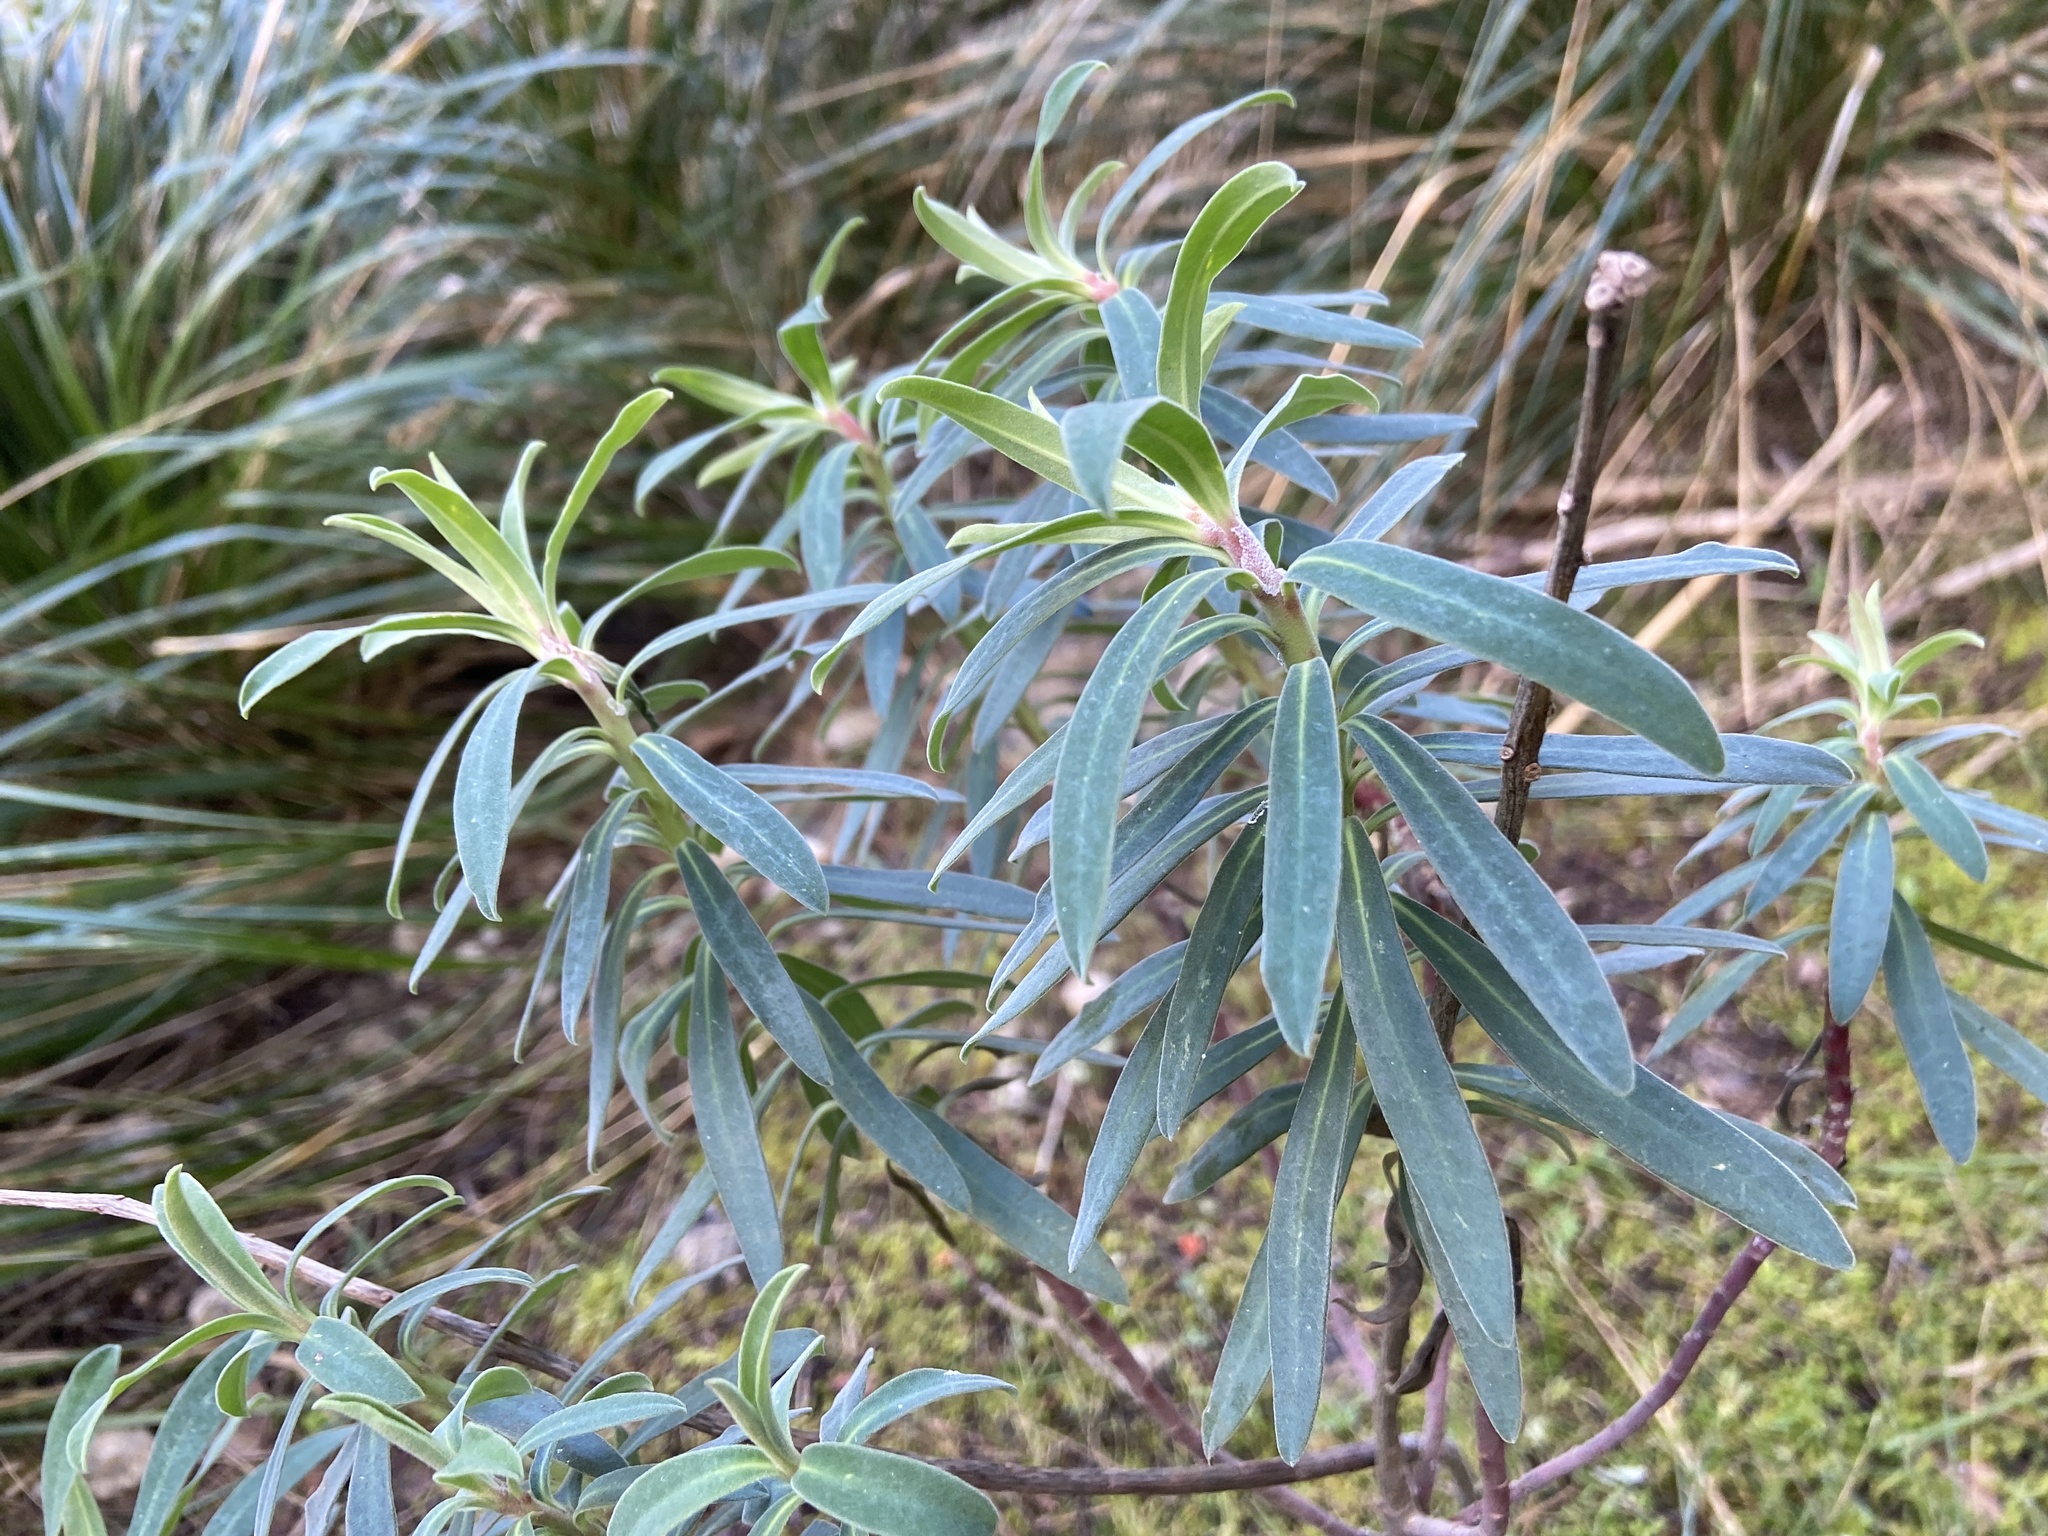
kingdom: Plantae
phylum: Tracheophyta
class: Magnoliopsida
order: Malpighiales
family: Euphorbiaceae
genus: Euphorbia
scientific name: Euphorbia characias
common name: Mediterranean spurge
